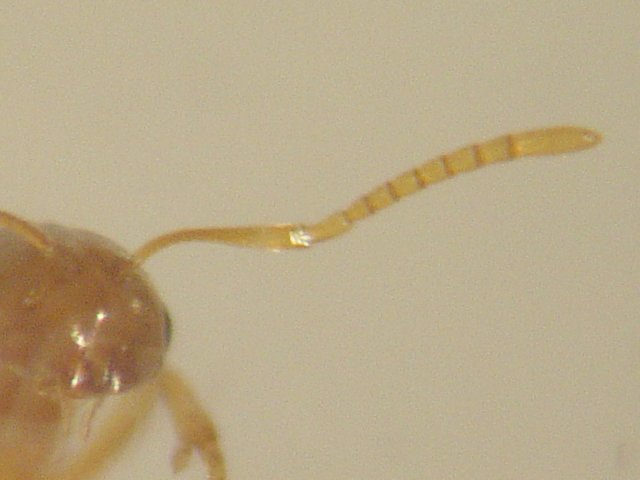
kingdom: Animalia
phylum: Arthropoda
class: Insecta
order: Hymenoptera
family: Formicidae
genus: Brachymyrmex
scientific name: Brachymyrmex depilis
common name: Hairless rover ant
